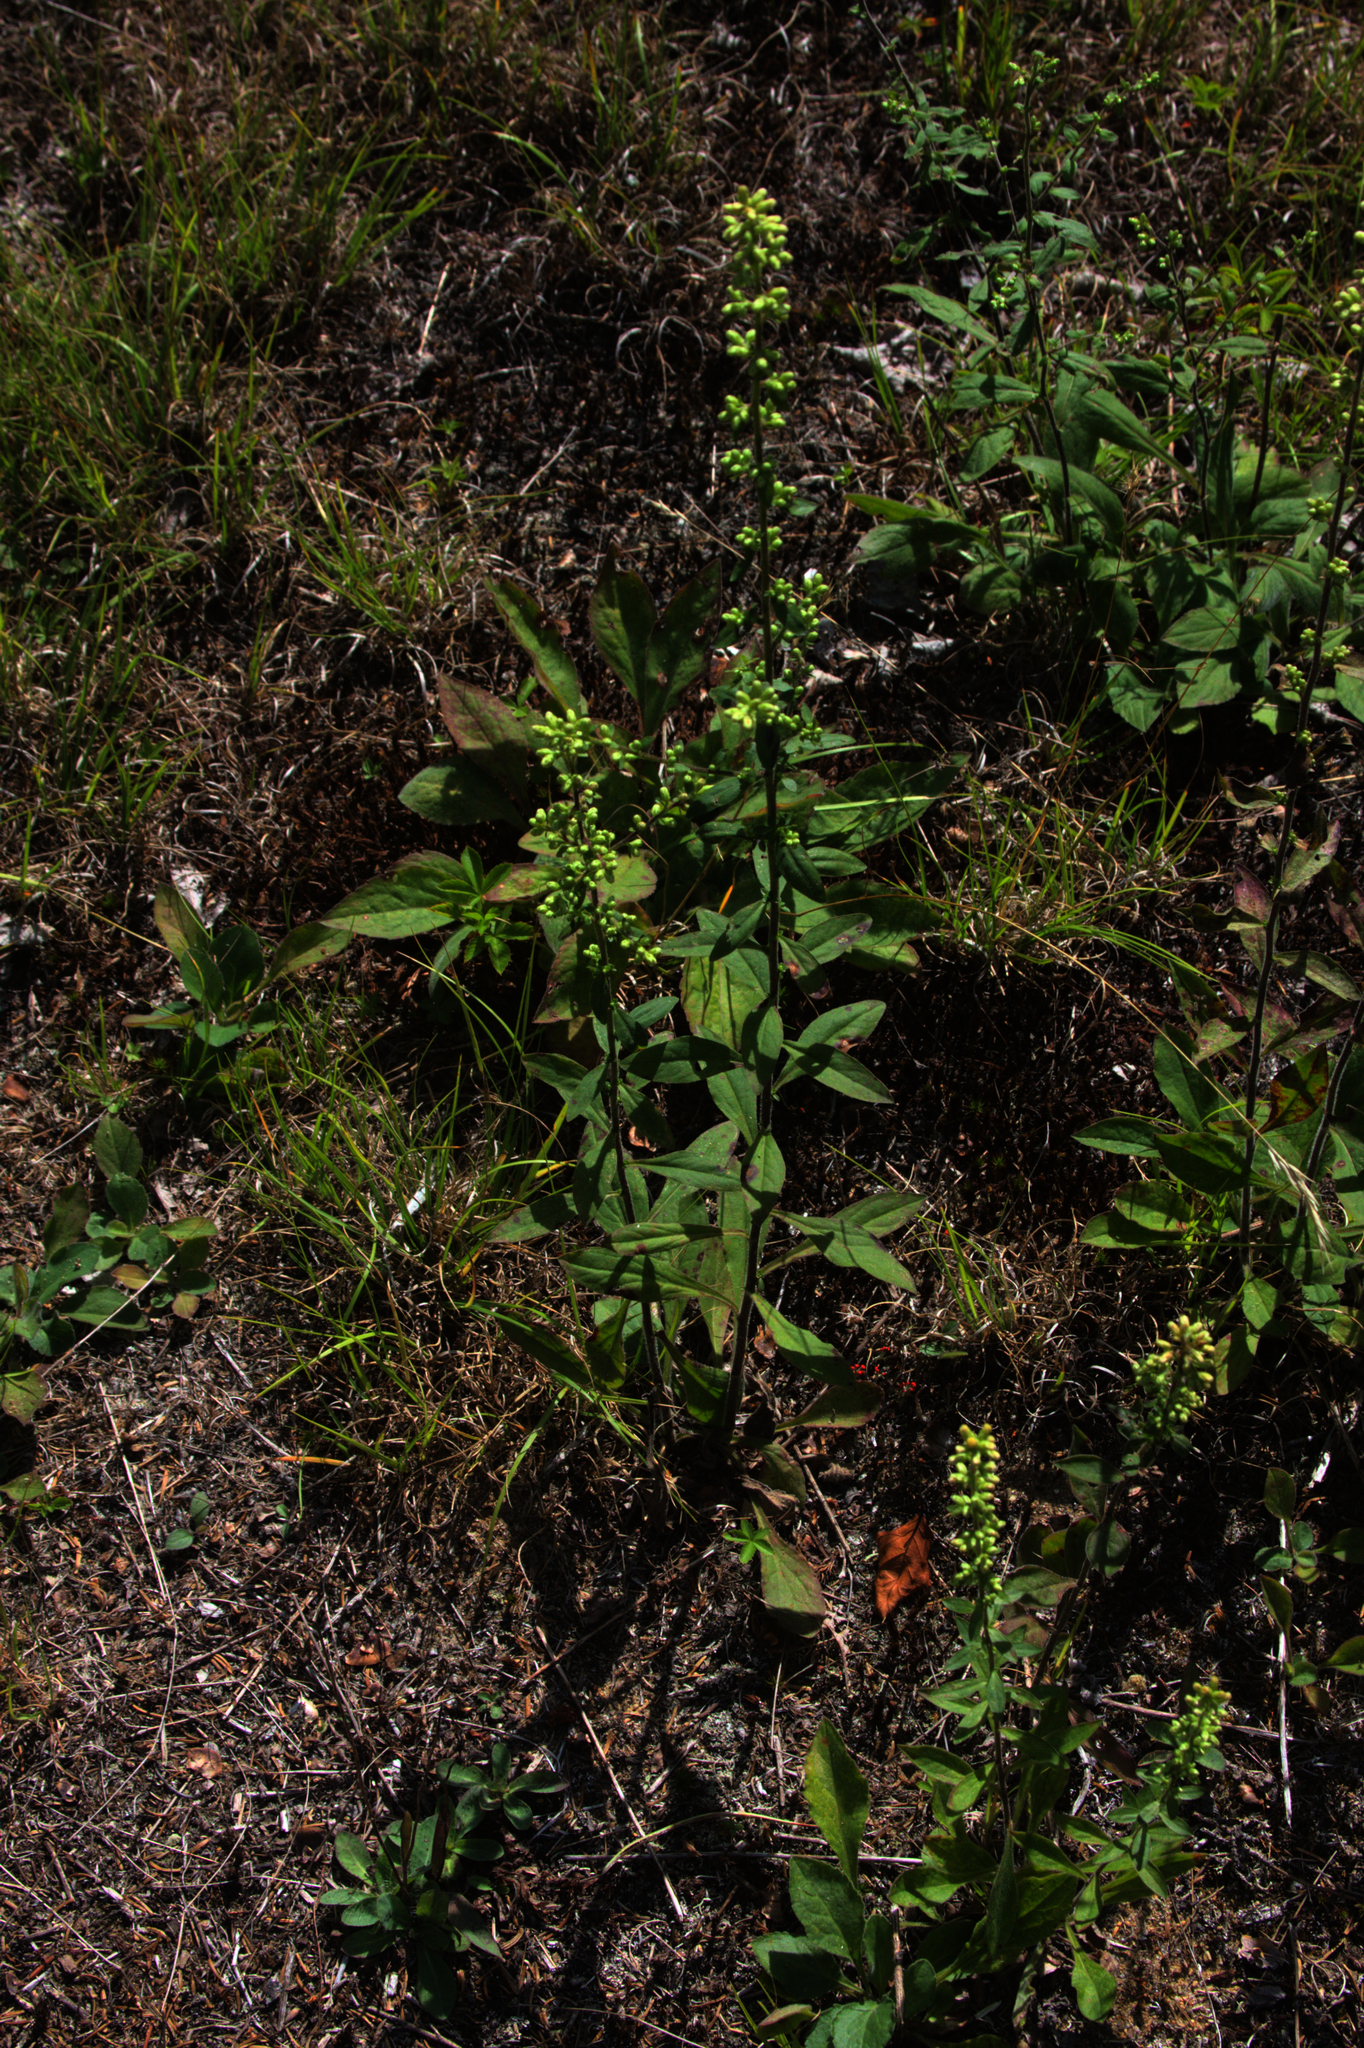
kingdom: Plantae
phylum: Tracheophyta
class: Magnoliopsida
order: Asterales
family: Asteraceae
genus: Solidago
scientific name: Solidago bicolor
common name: Silverrod
